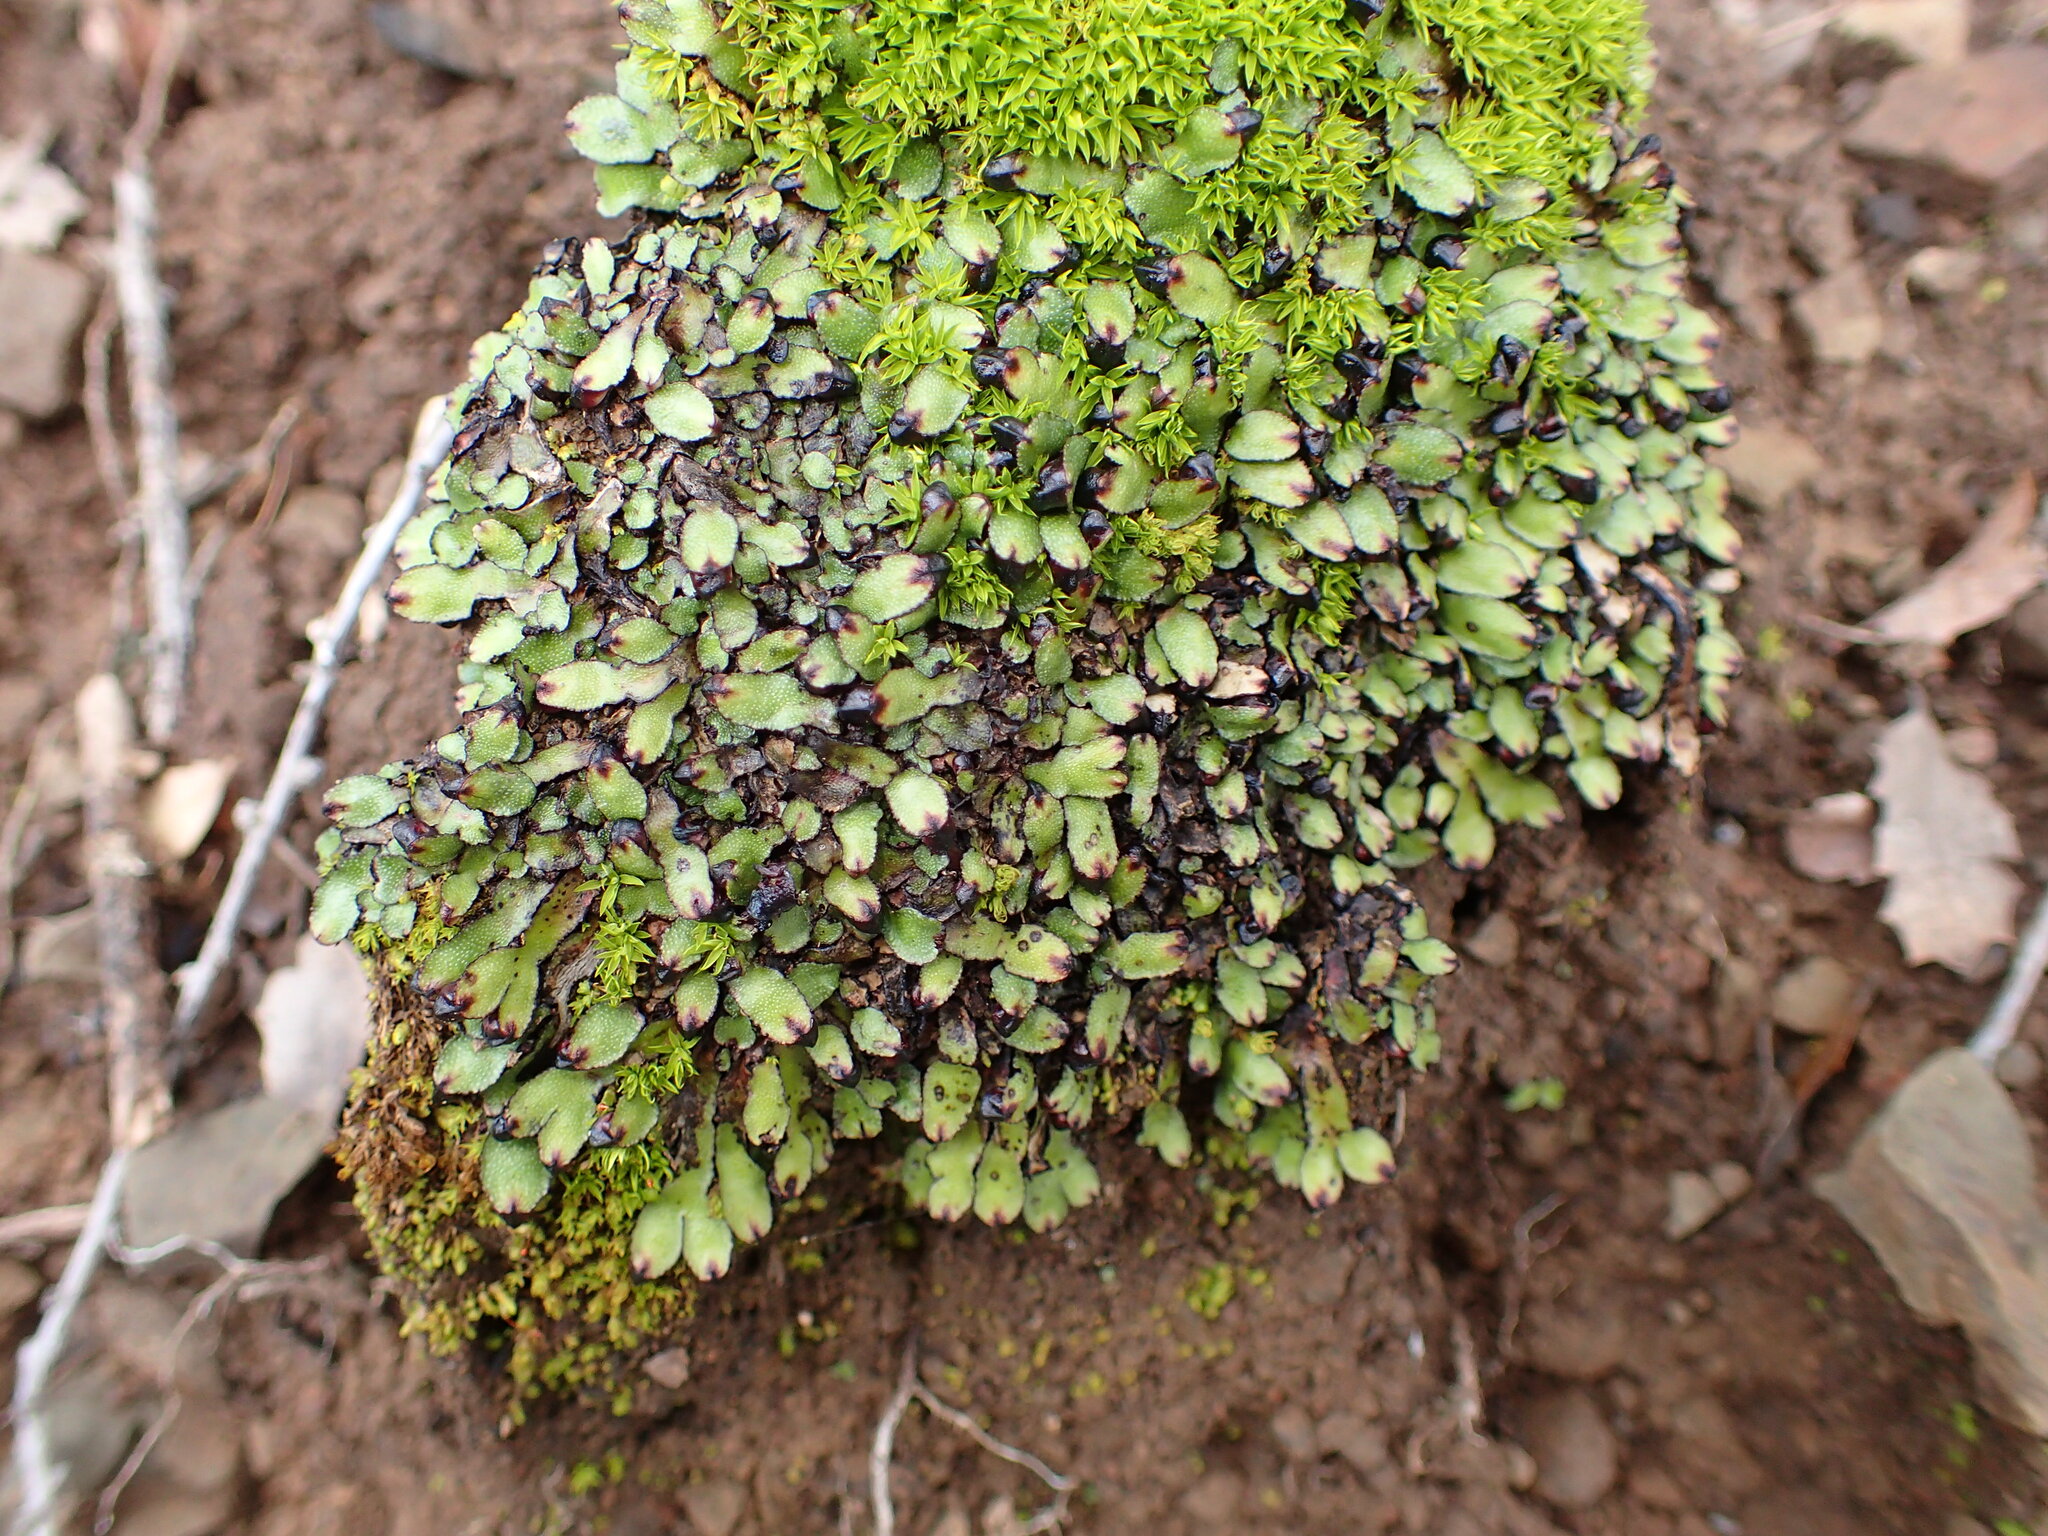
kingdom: Plantae
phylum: Marchantiophyta
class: Marchantiopsida
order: Marchantiales
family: Targioniaceae
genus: Targionia
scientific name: Targionia hypophylla
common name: Orobus-seed liverwort
